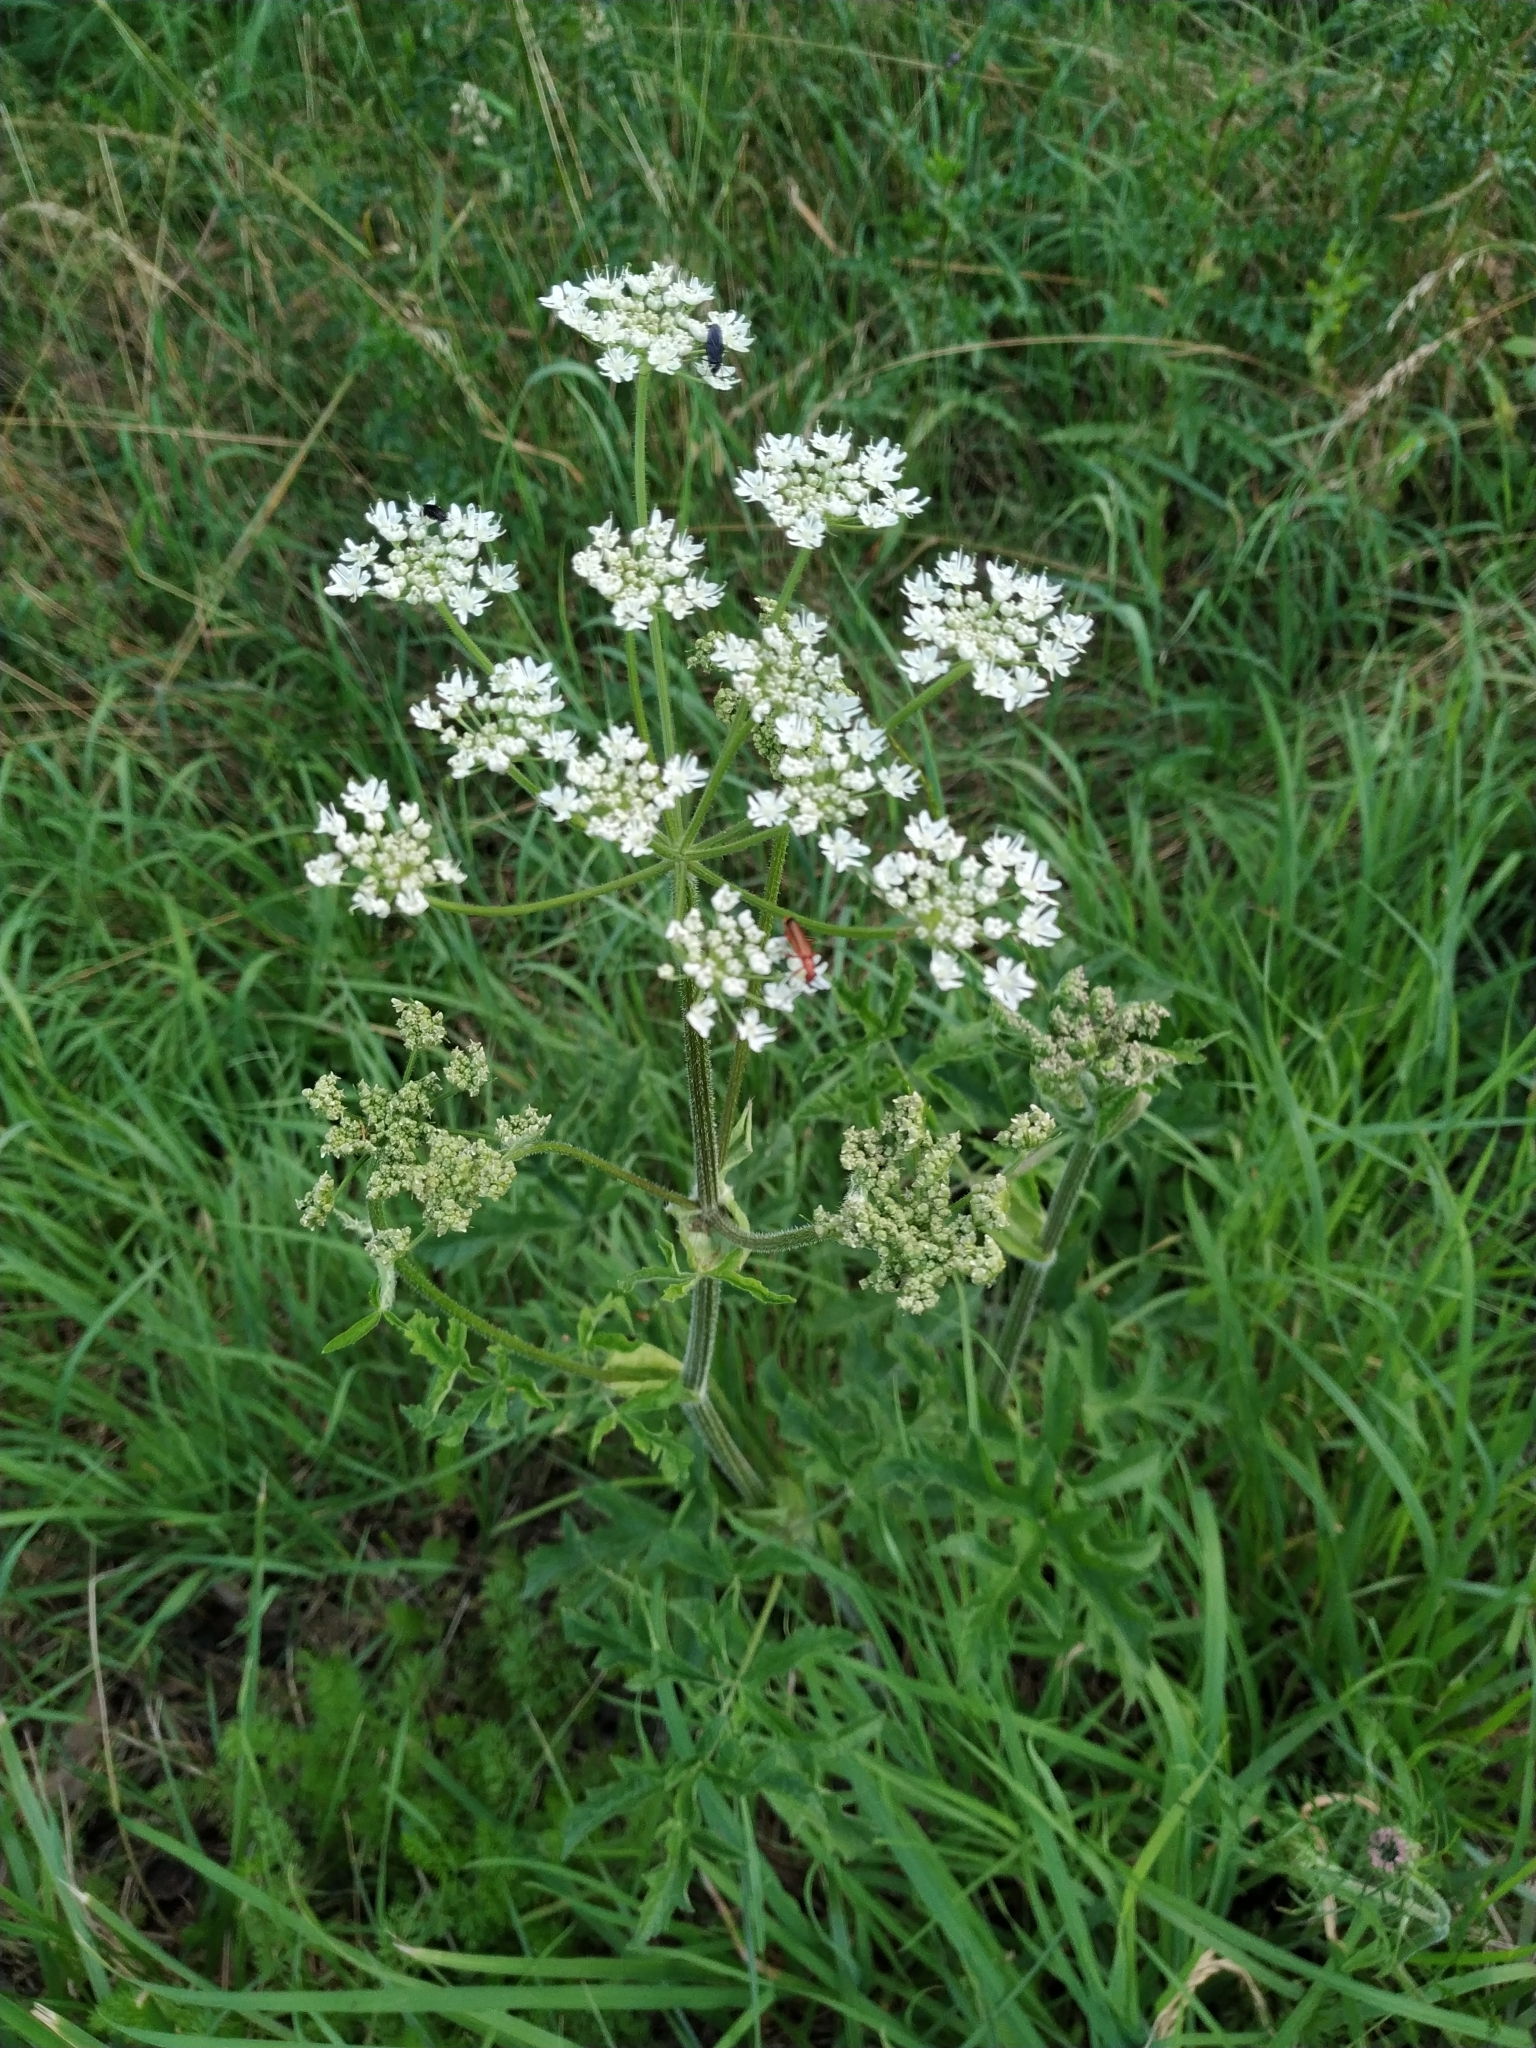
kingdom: Plantae
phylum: Tracheophyta
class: Magnoliopsida
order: Apiales
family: Apiaceae
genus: Heracleum
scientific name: Heracleum sphondylium
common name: Hogweed
